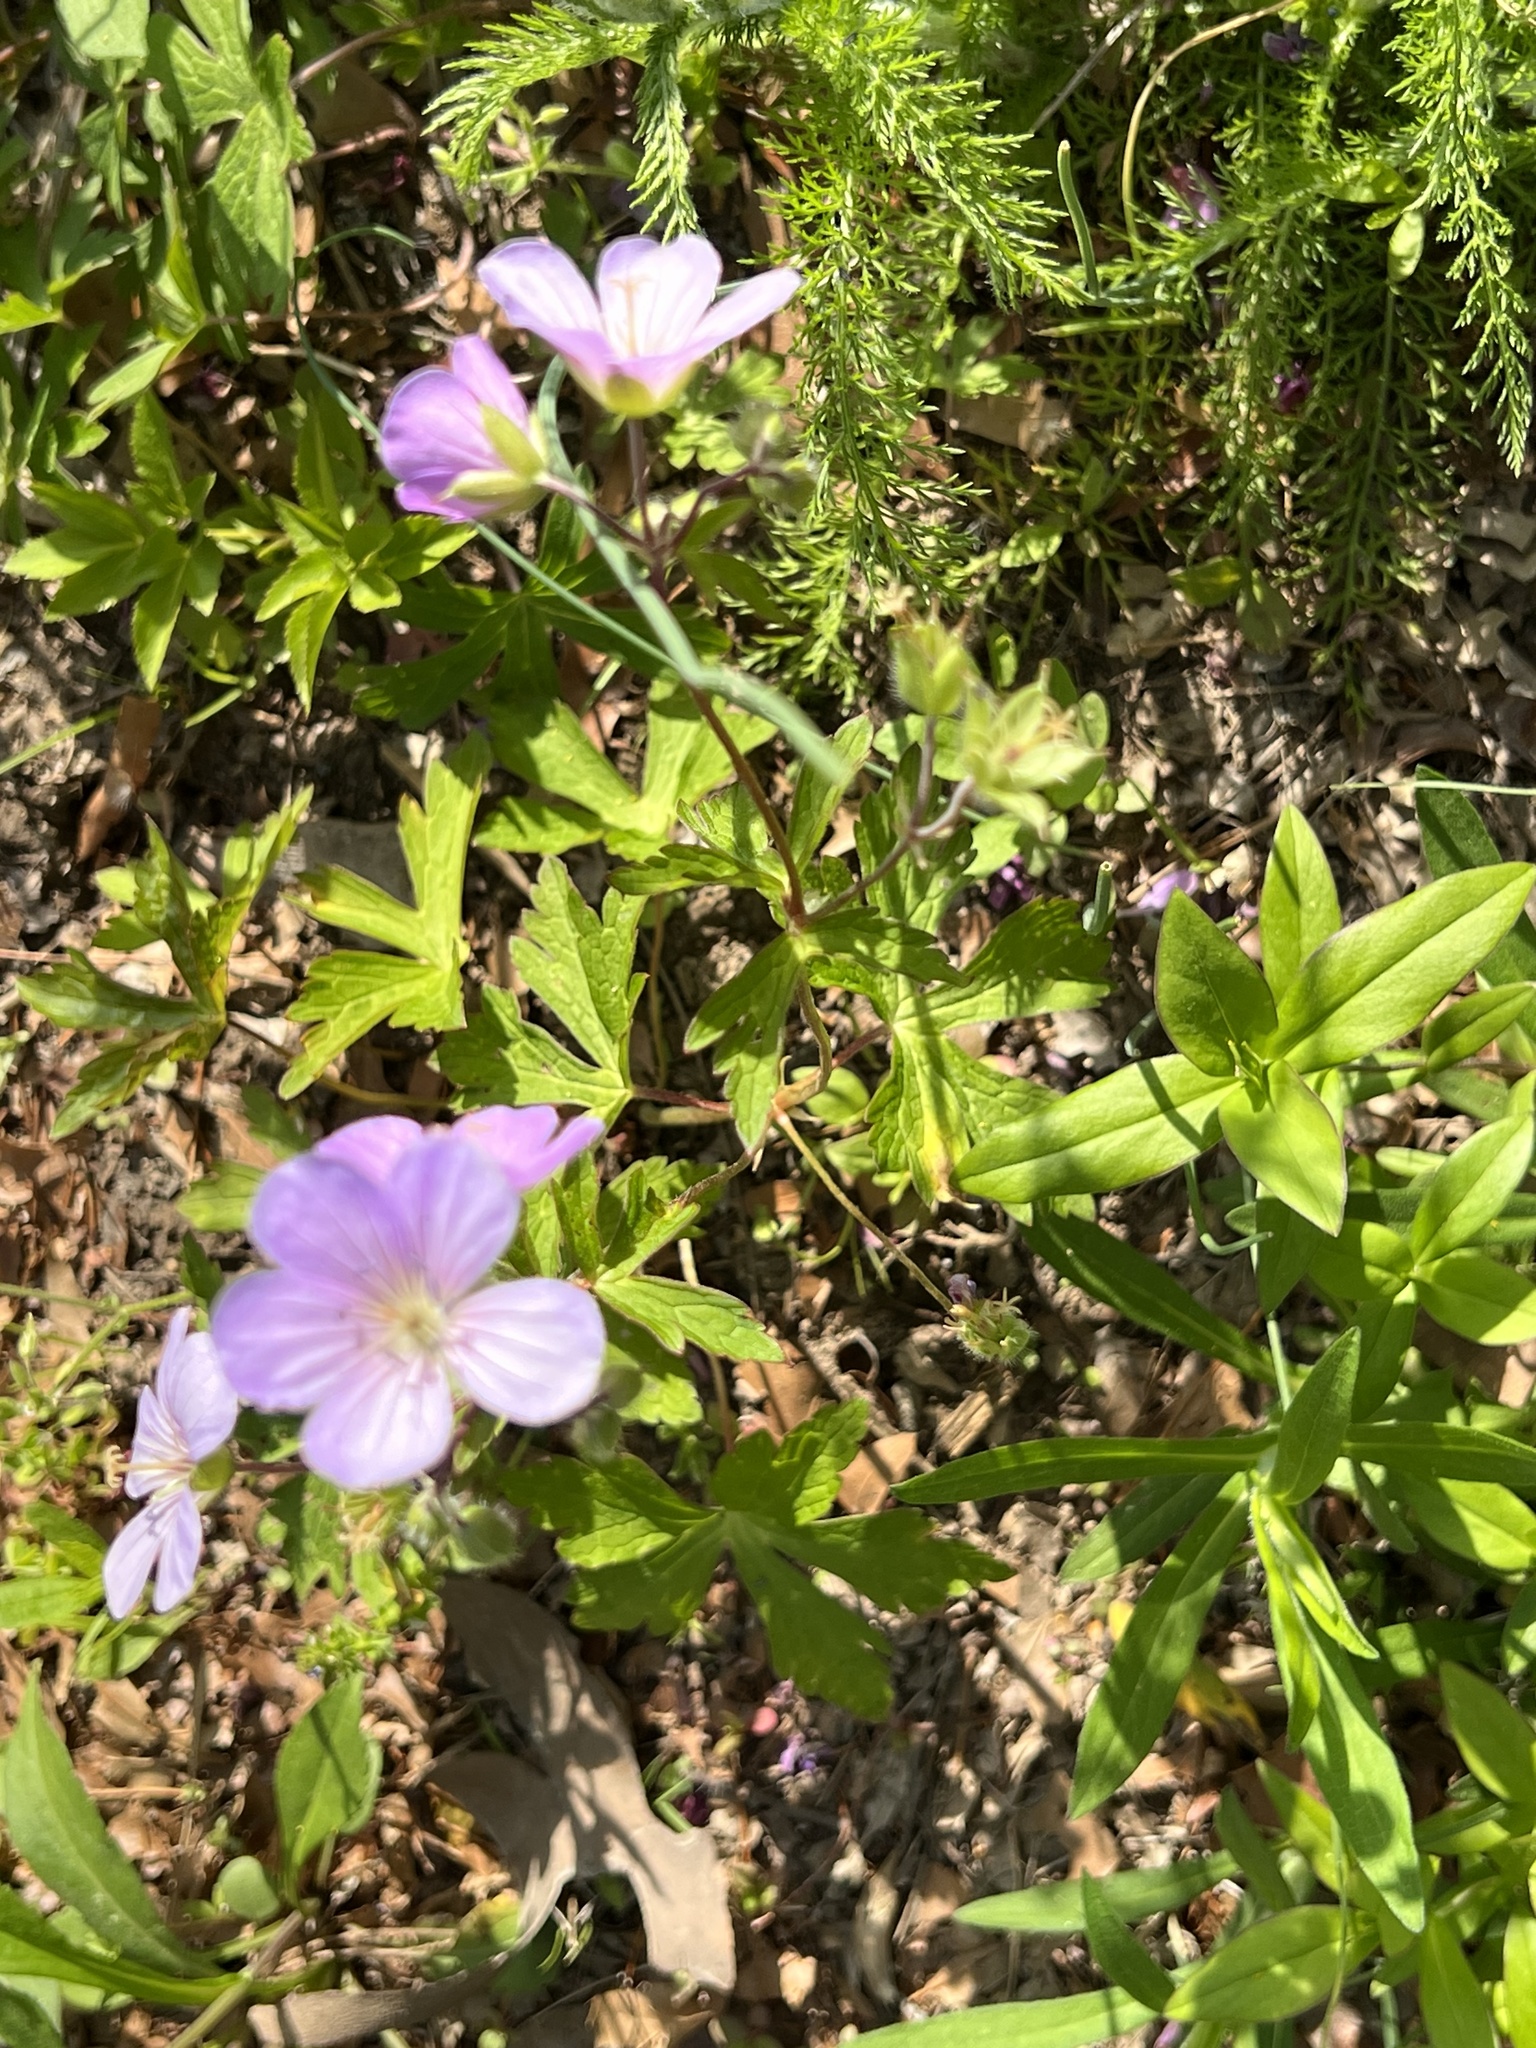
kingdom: Plantae
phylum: Tracheophyta
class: Magnoliopsida
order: Geraniales
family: Geraniaceae
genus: Geranium
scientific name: Geranium maculatum
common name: Spotted geranium
